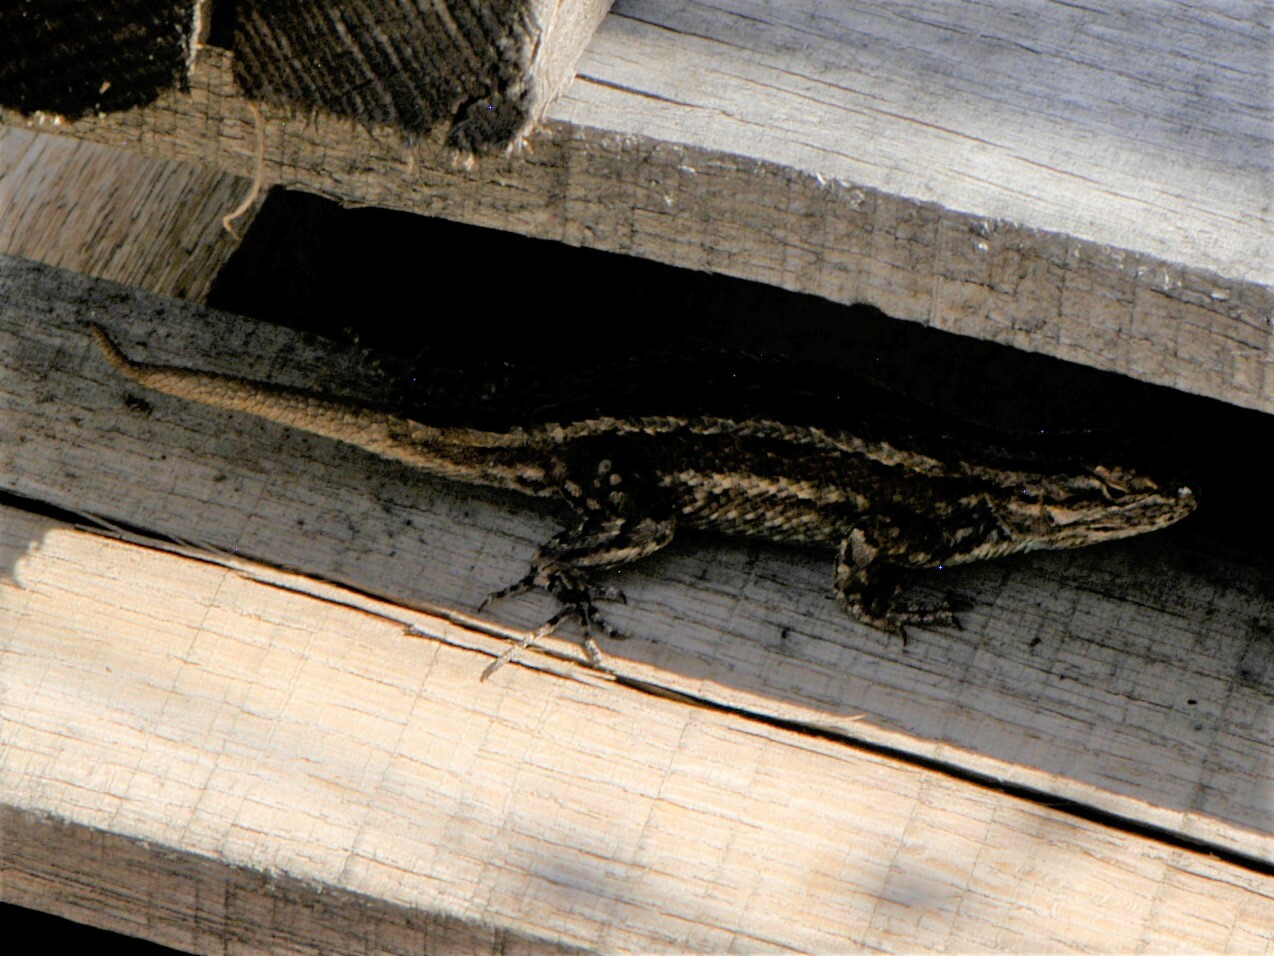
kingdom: Animalia
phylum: Chordata
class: Squamata
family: Phrynosomatidae
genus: Sceloporus
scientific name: Sceloporus cowlesi
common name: White sands prairie lizard
